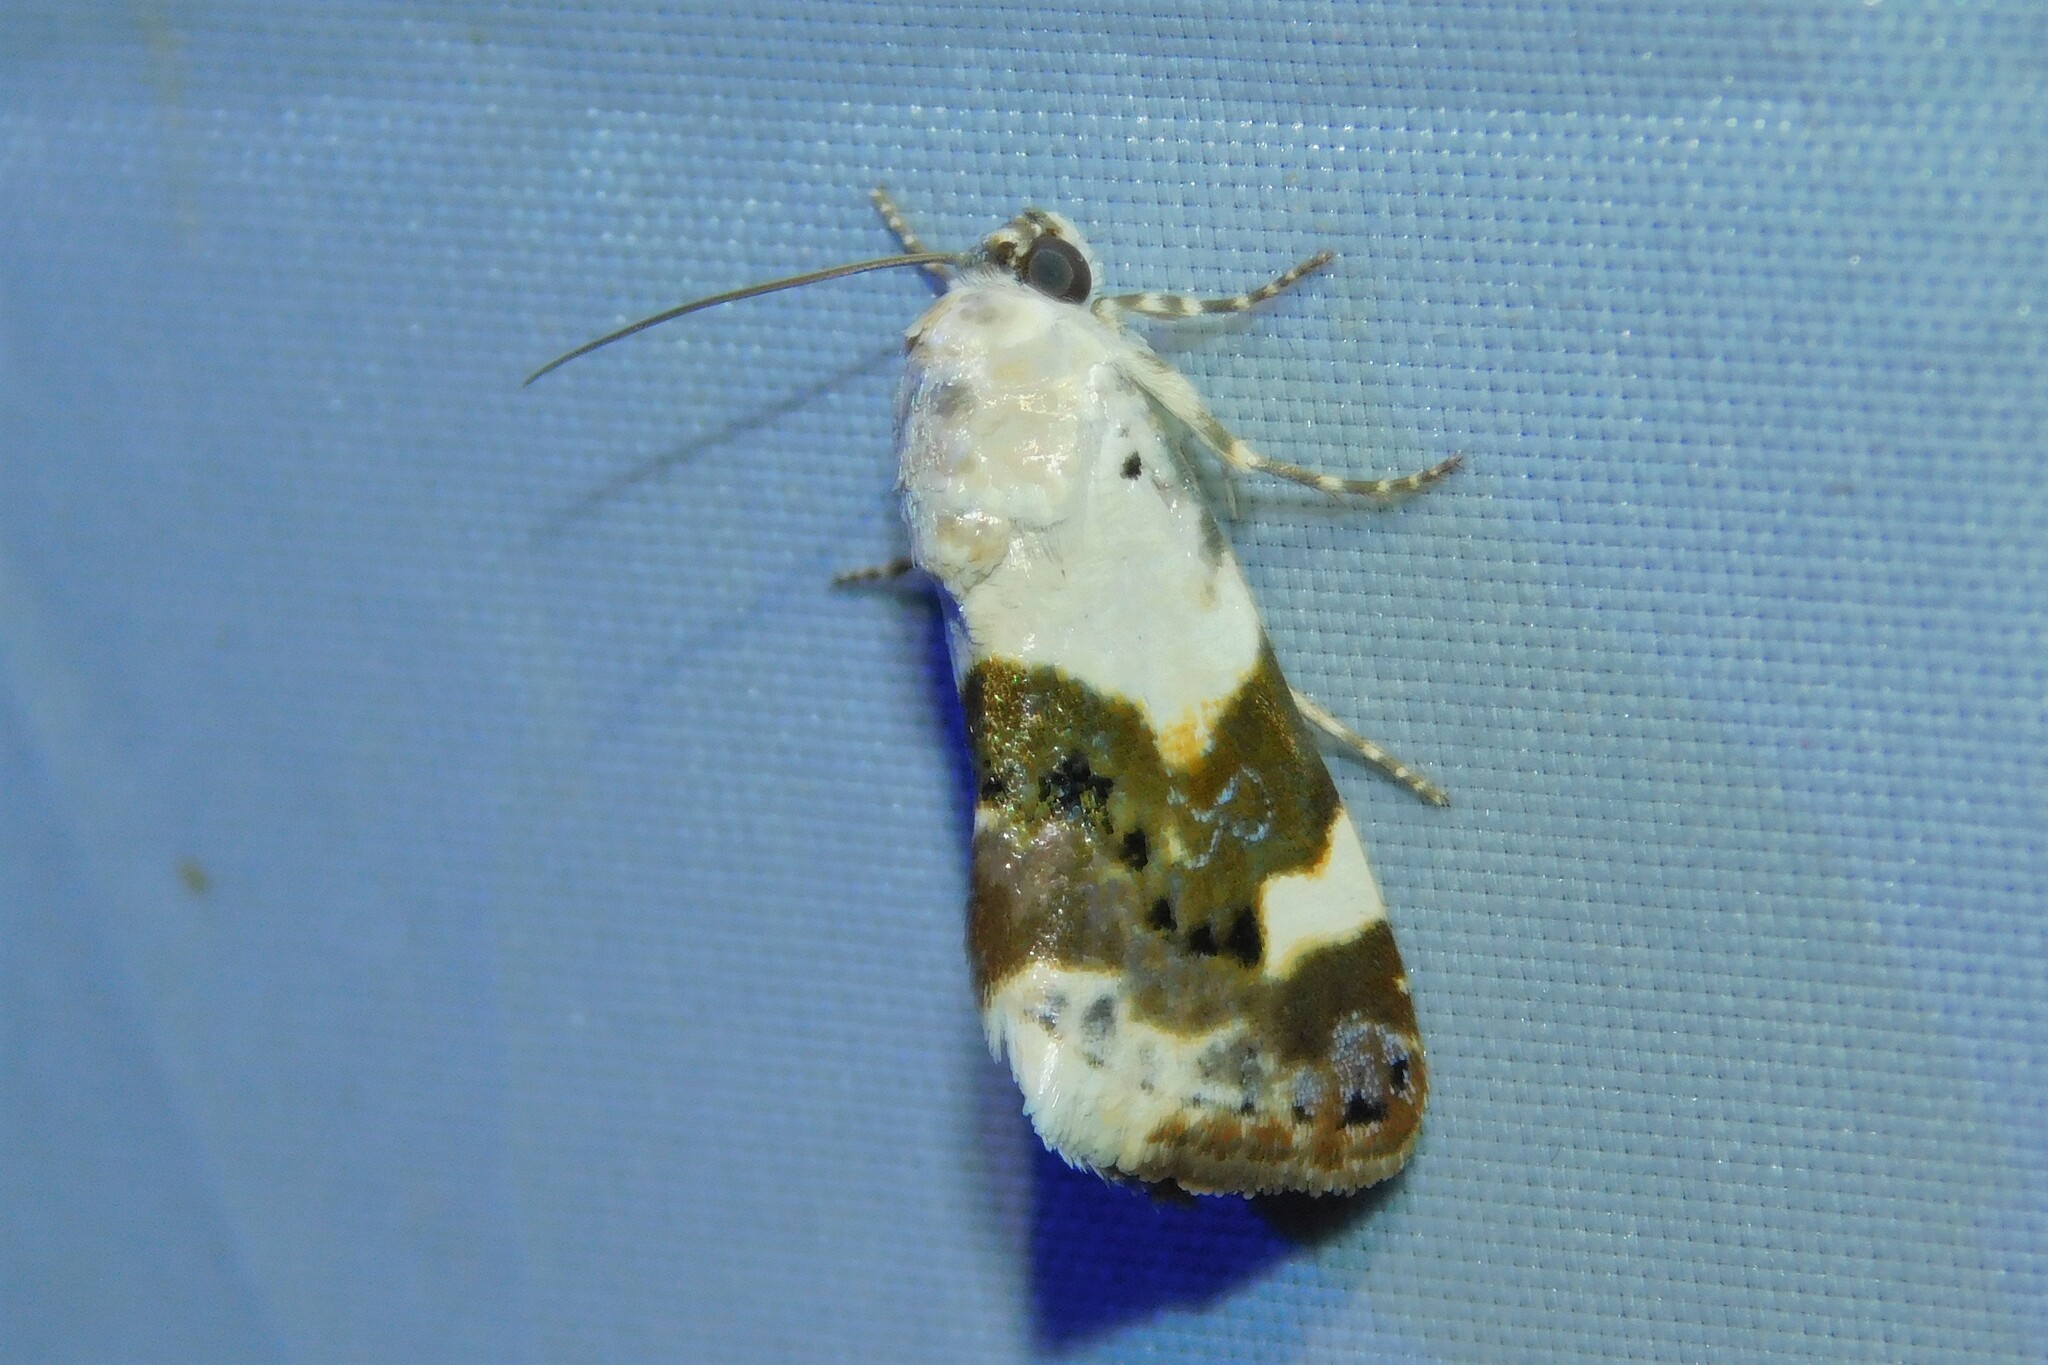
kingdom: Animalia
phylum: Arthropoda
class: Insecta
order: Lepidoptera
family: Noctuidae
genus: Acontia
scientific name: Acontia lucida
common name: Pale shoulder
